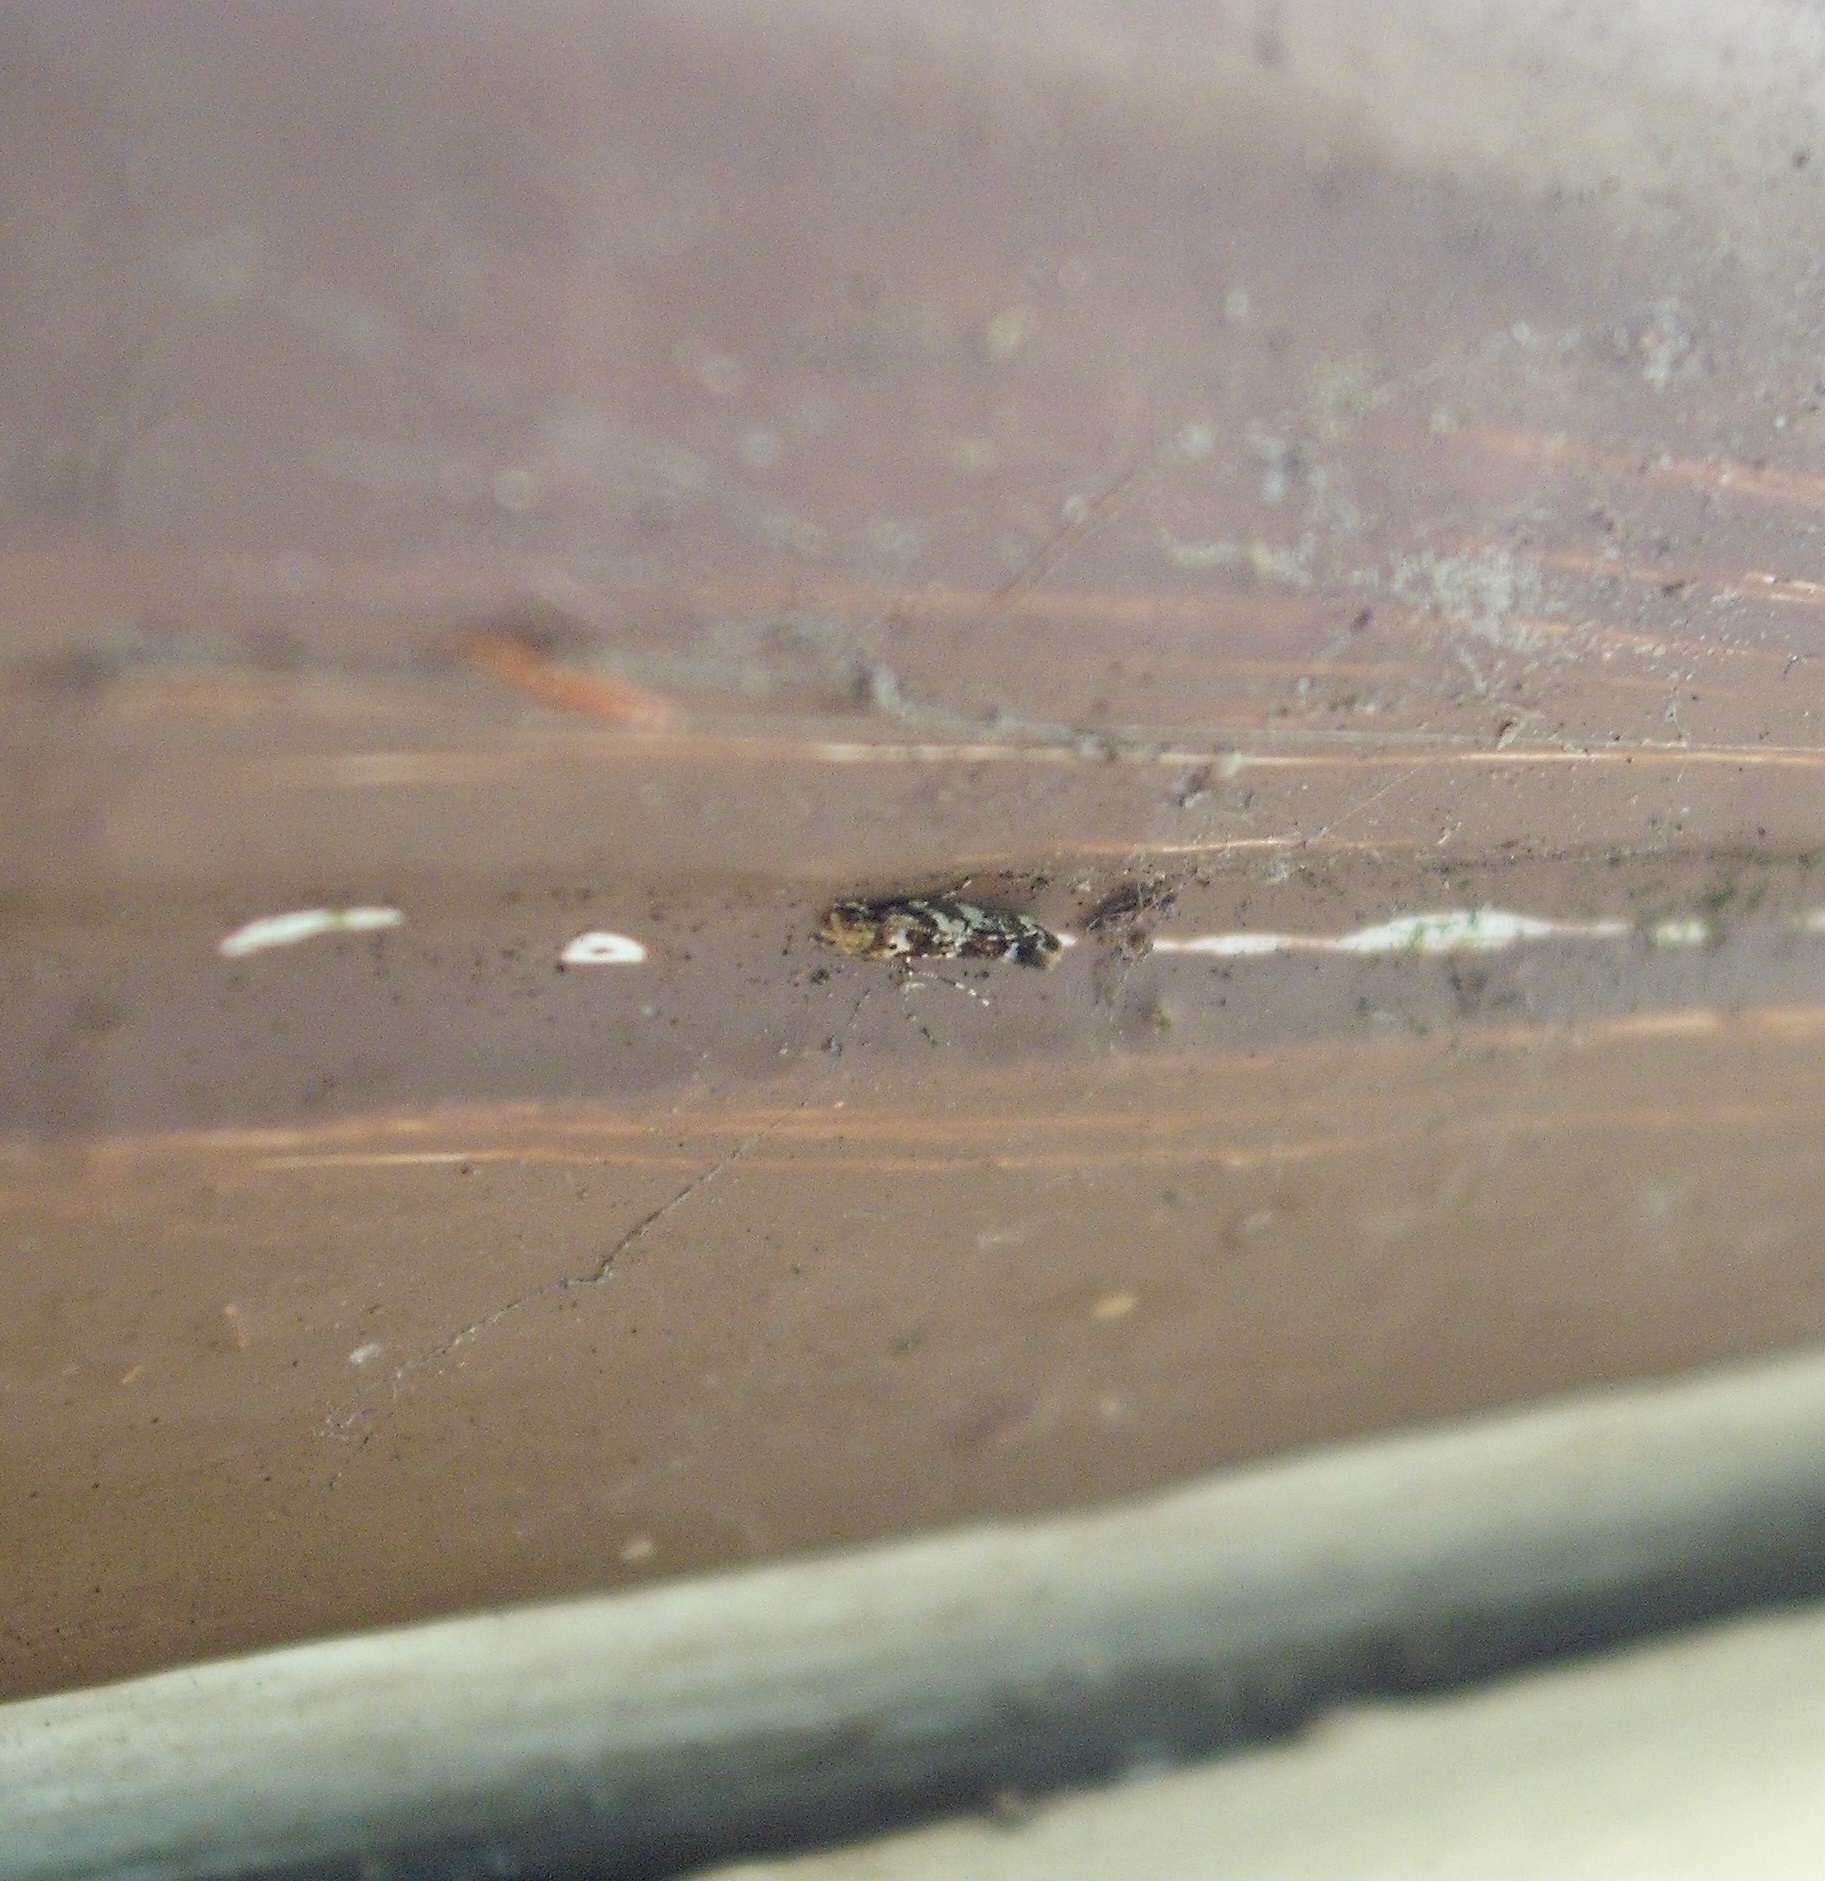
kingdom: Animalia
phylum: Arthropoda
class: Insecta
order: Lepidoptera
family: Dryadaulidae
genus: Dryadaula
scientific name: Dryadaula pactolia
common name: Cellar clothes
